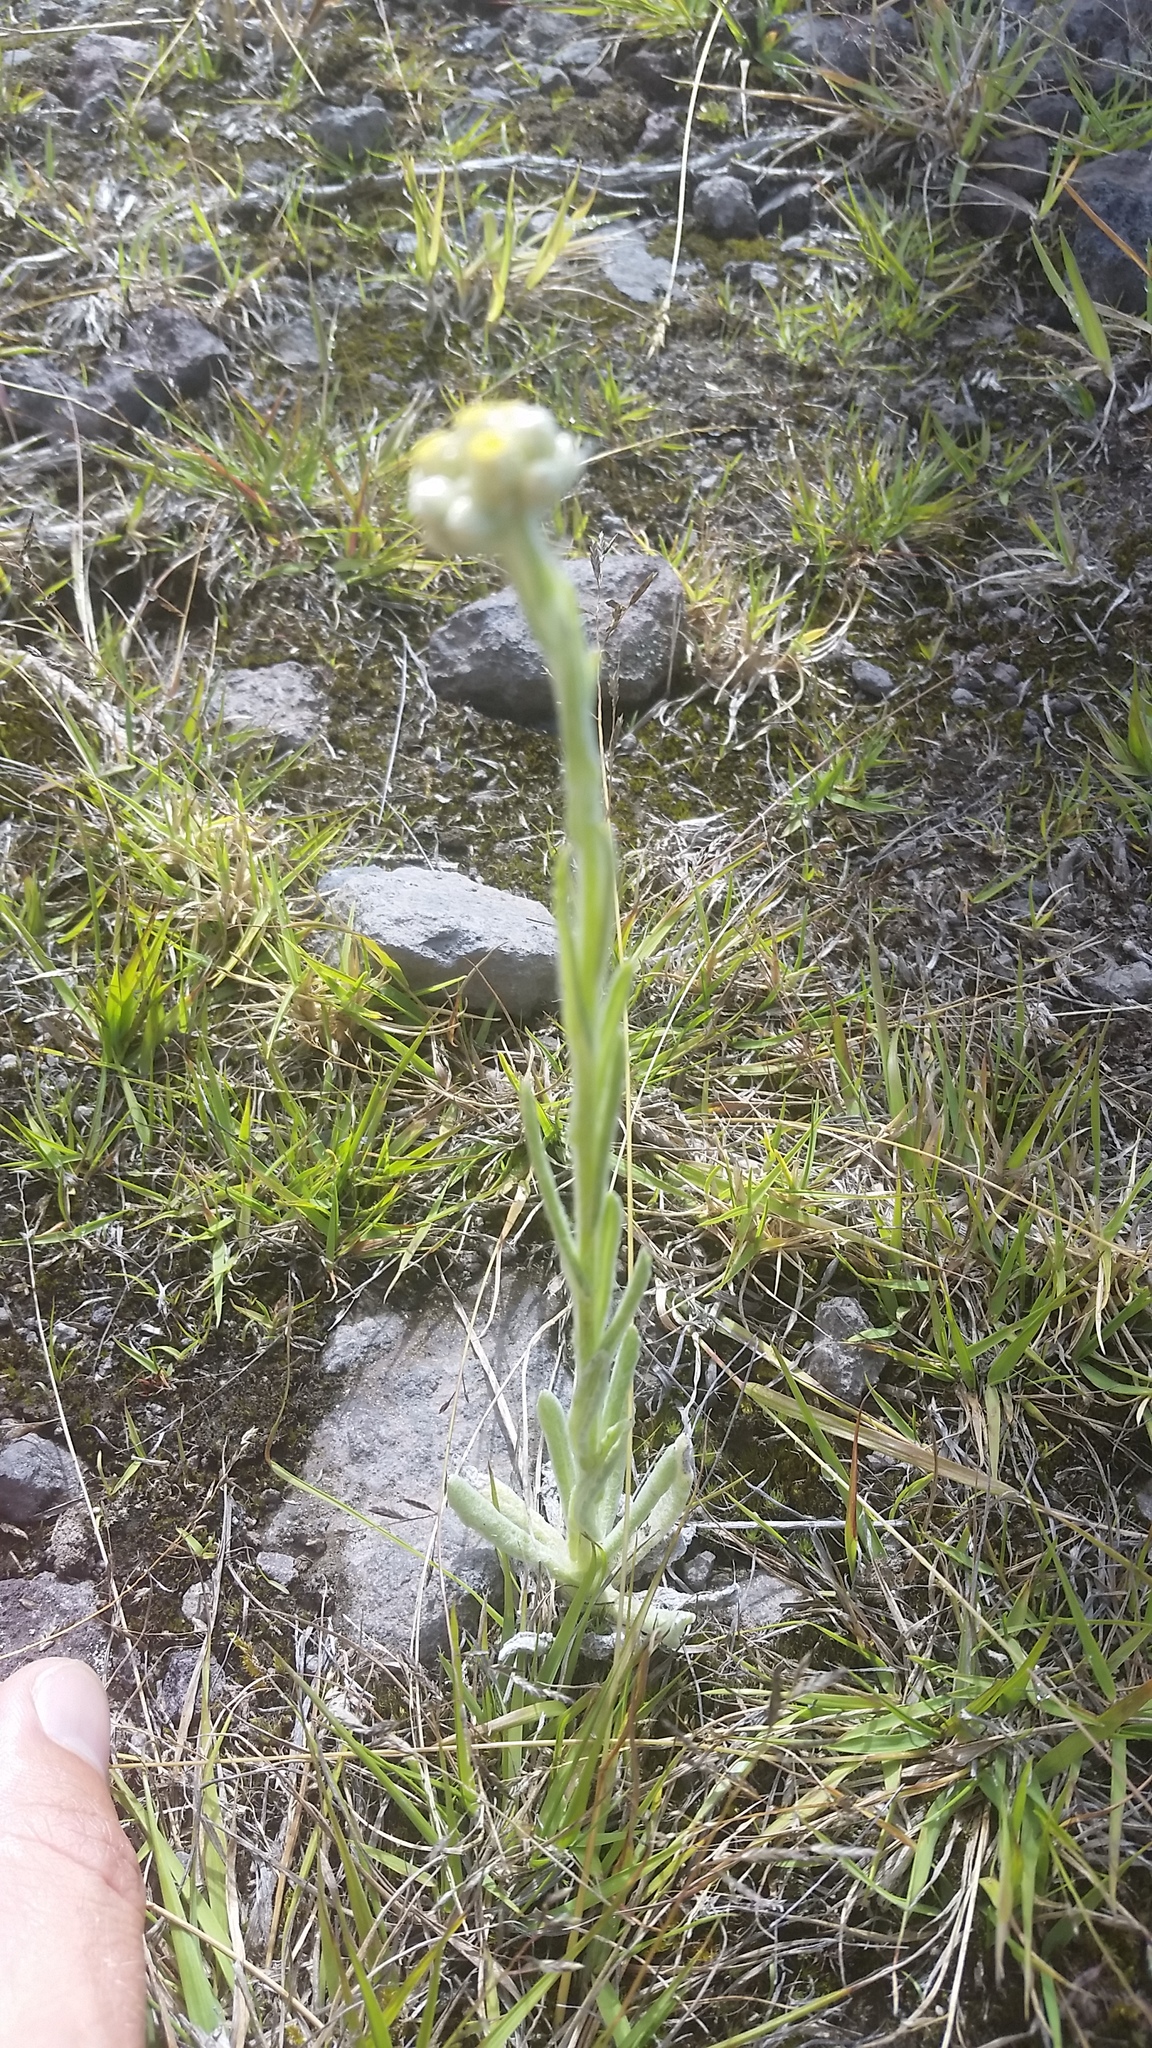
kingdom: Plantae
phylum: Tracheophyta
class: Magnoliopsida
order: Asterales
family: Asteraceae
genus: Pseudognaphalium
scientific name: Pseudognaphalium sandwicensium
